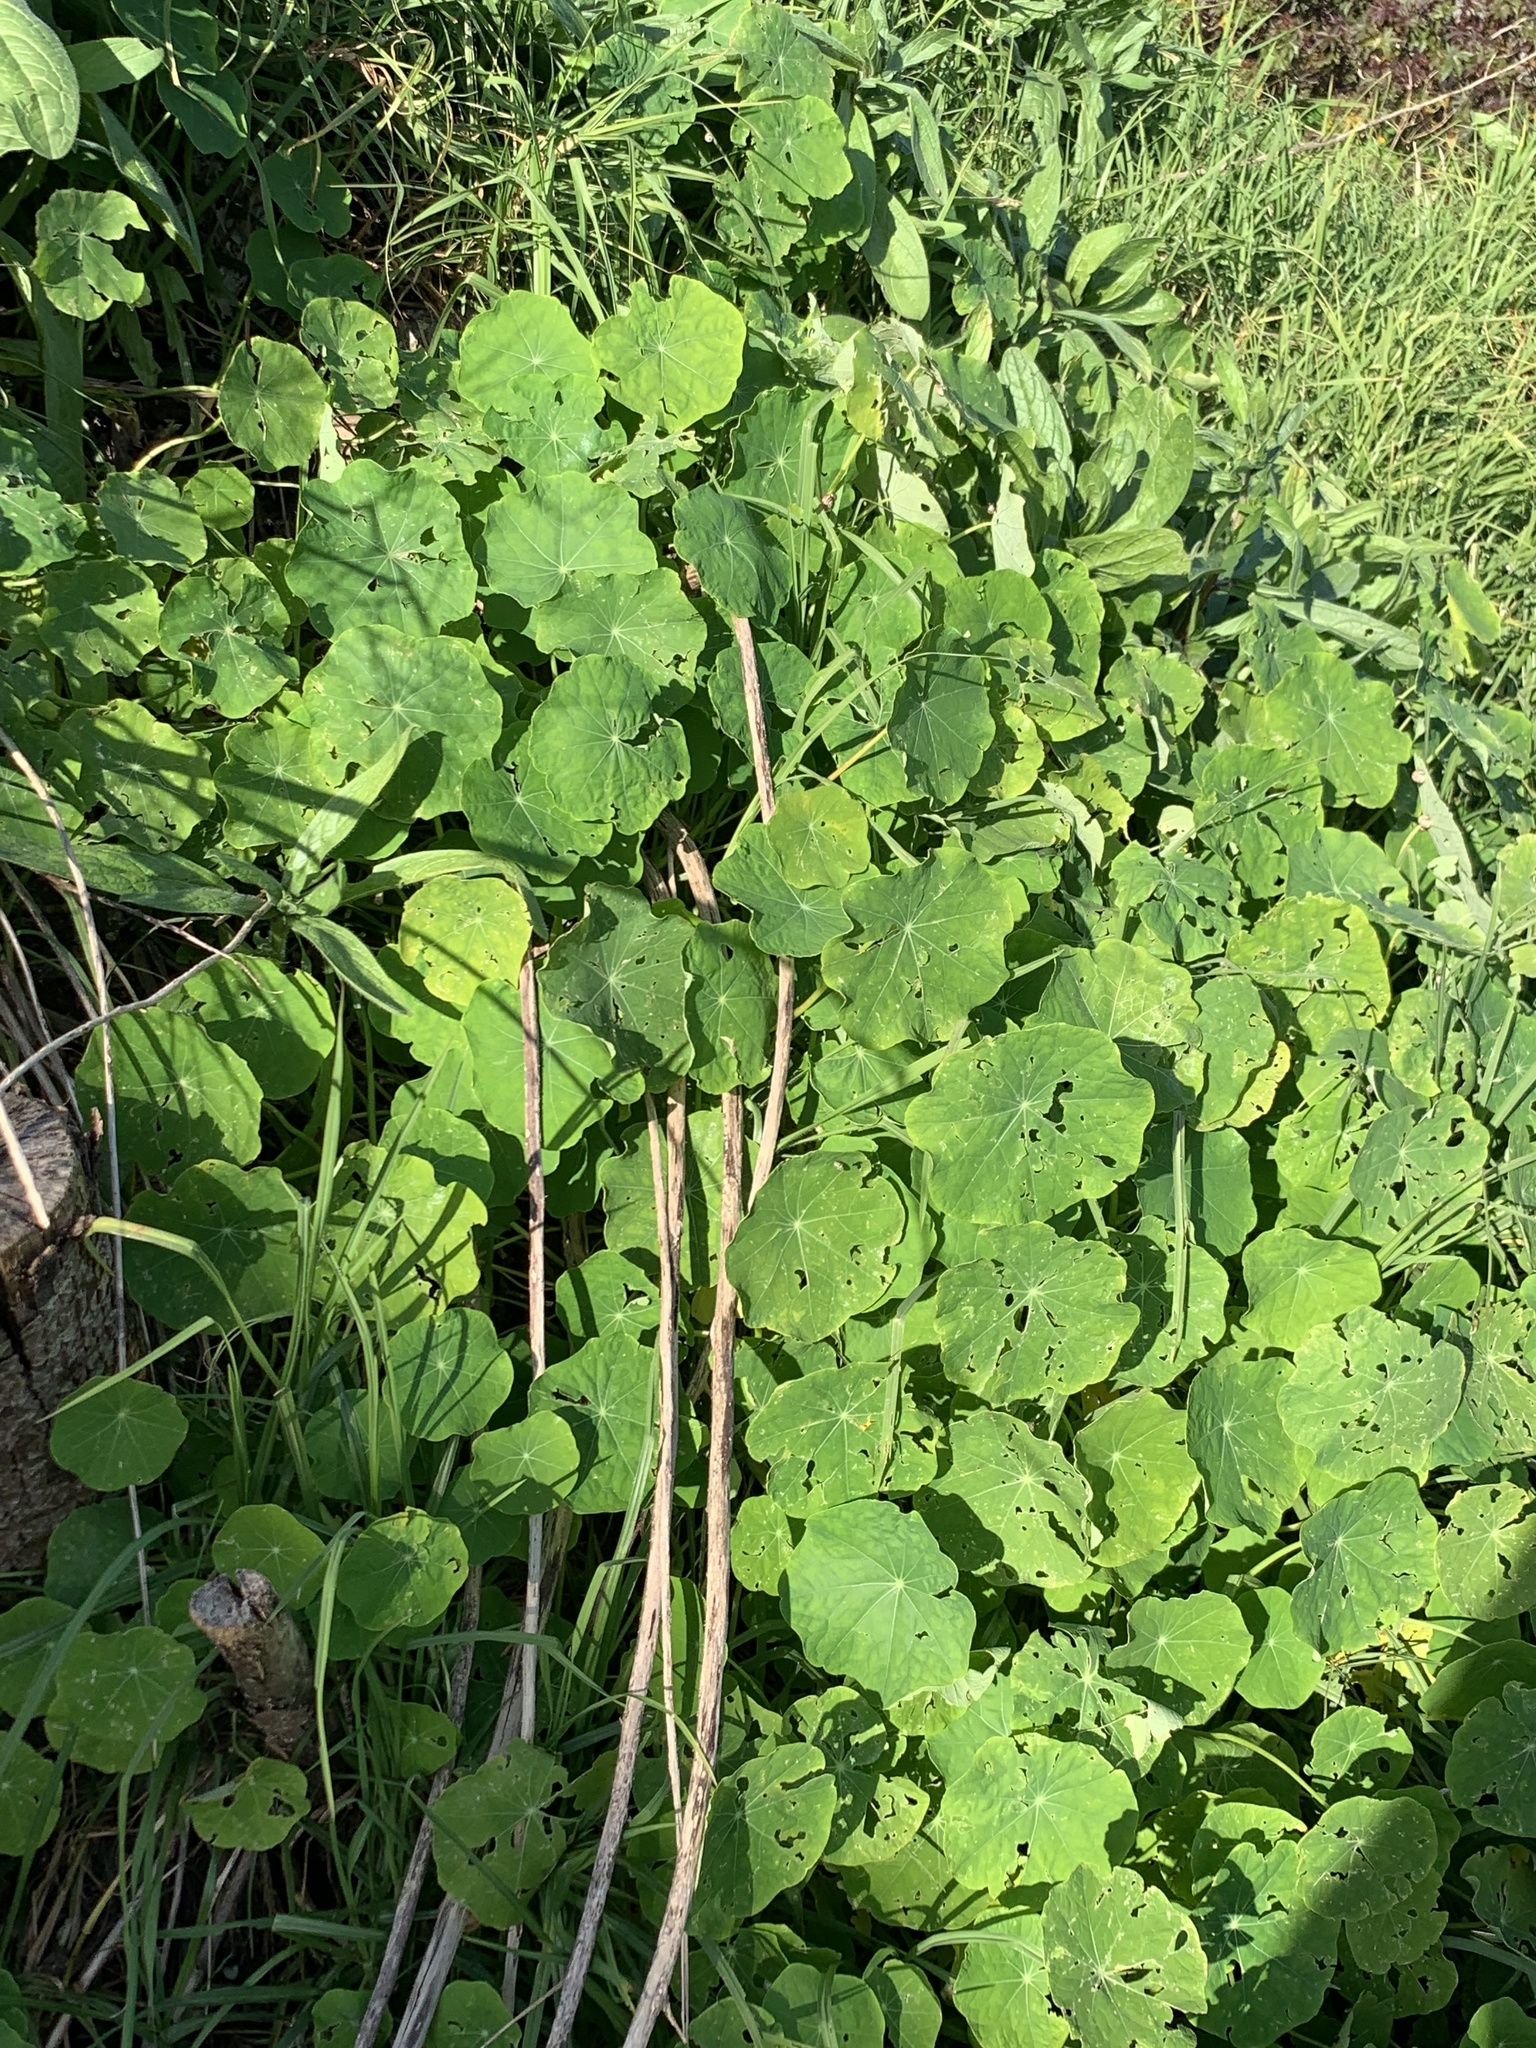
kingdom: Plantae
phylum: Tracheophyta
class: Magnoliopsida
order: Brassicales
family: Tropaeolaceae
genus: Tropaeolum
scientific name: Tropaeolum majus
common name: Nasturtium
